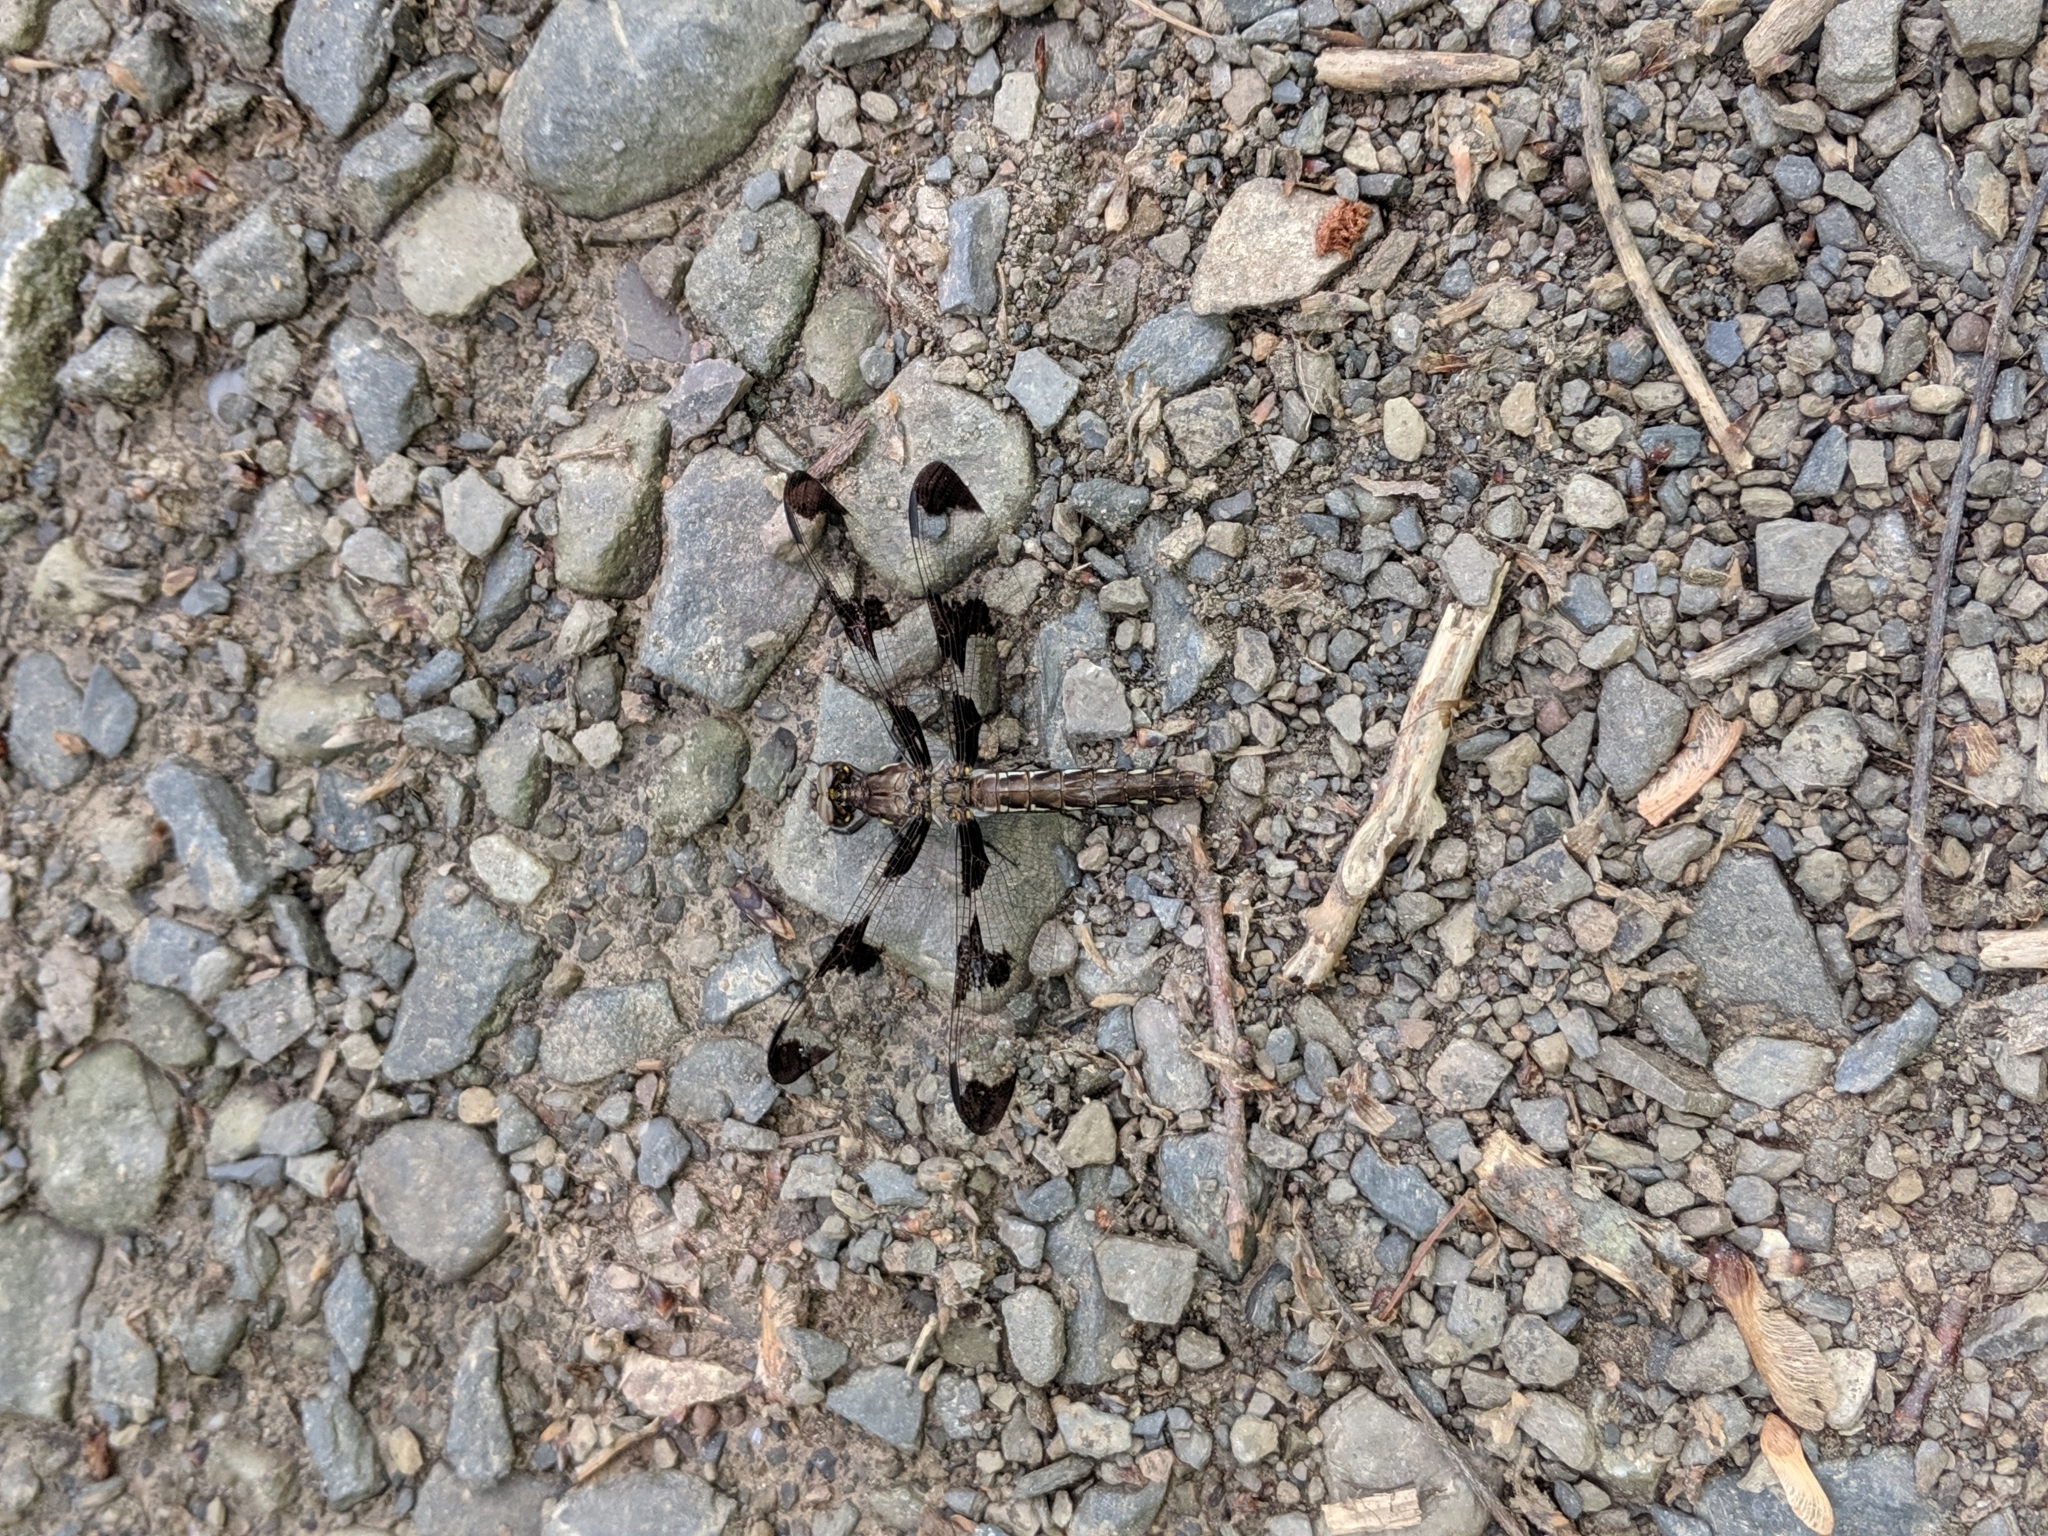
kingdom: Animalia
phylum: Arthropoda
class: Insecta
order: Odonata
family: Libellulidae
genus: Plathemis
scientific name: Plathemis lydia
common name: Common whitetail
